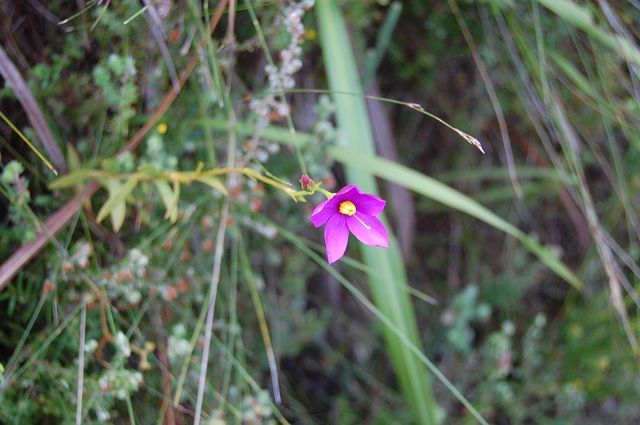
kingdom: Plantae
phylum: Tracheophyta
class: Magnoliopsida
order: Gentianales
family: Gentianaceae
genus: Chironia
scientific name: Chironia melampyrifolia
